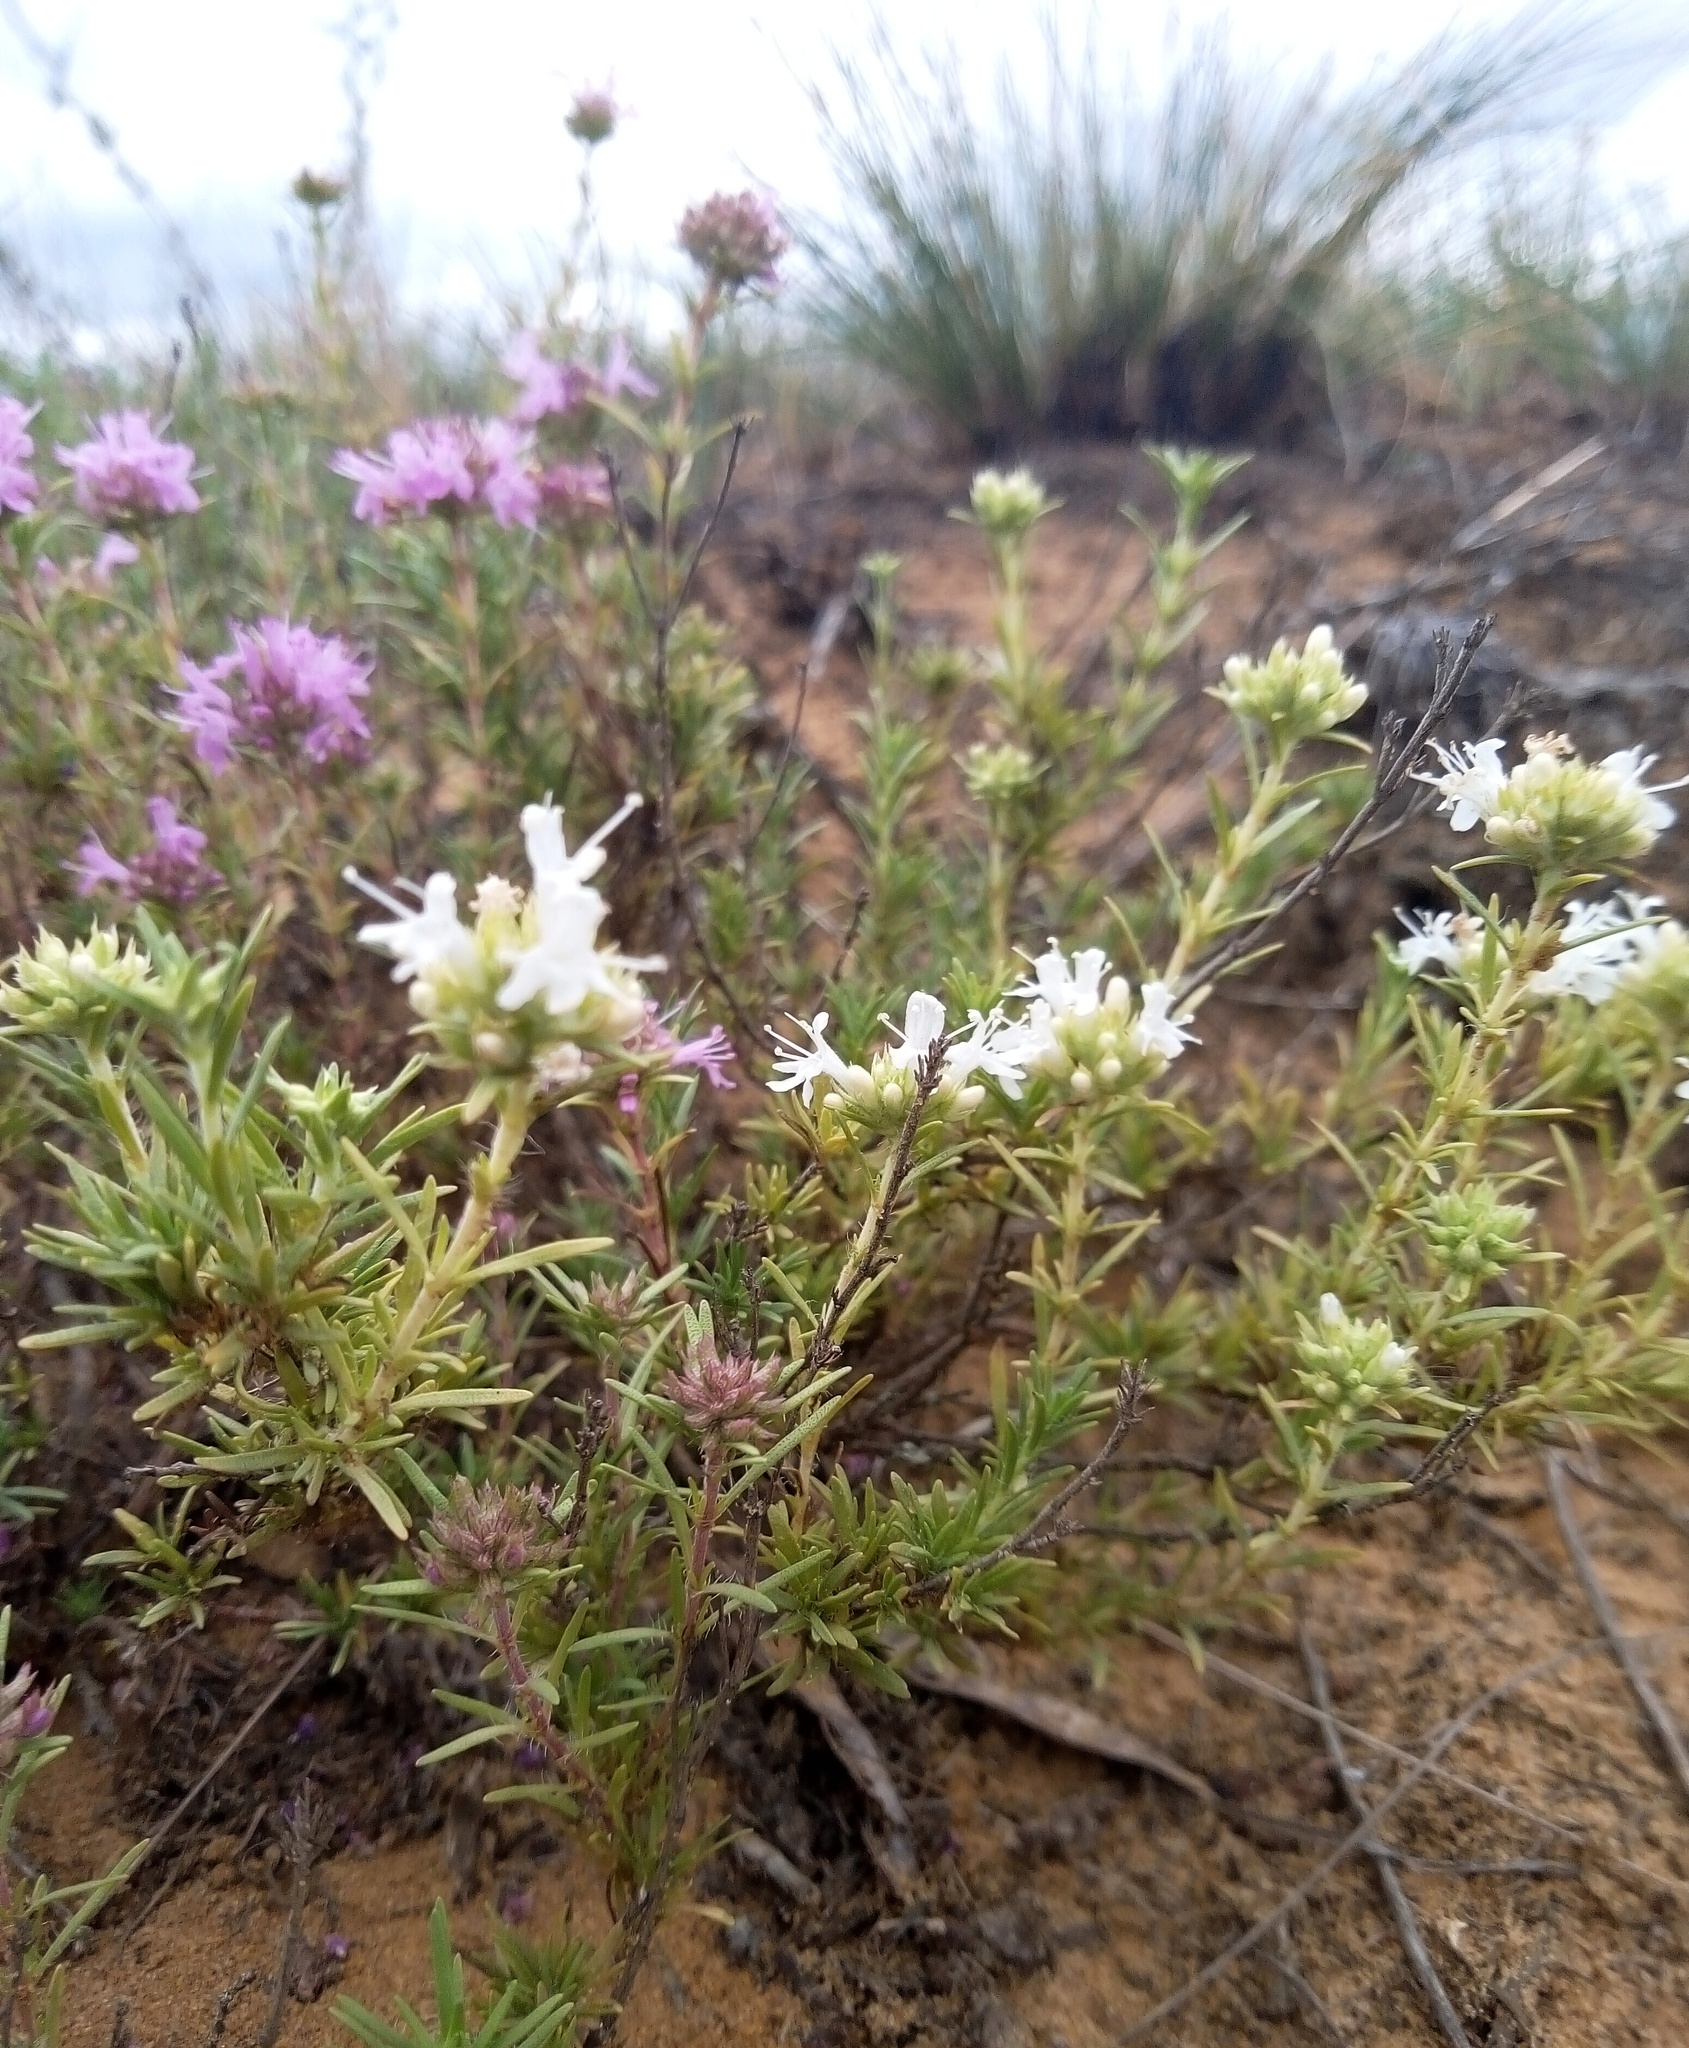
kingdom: Plantae
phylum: Tracheophyta
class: Magnoliopsida
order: Lamiales
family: Lamiaceae
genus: Thymus
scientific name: Thymus pallasianus
